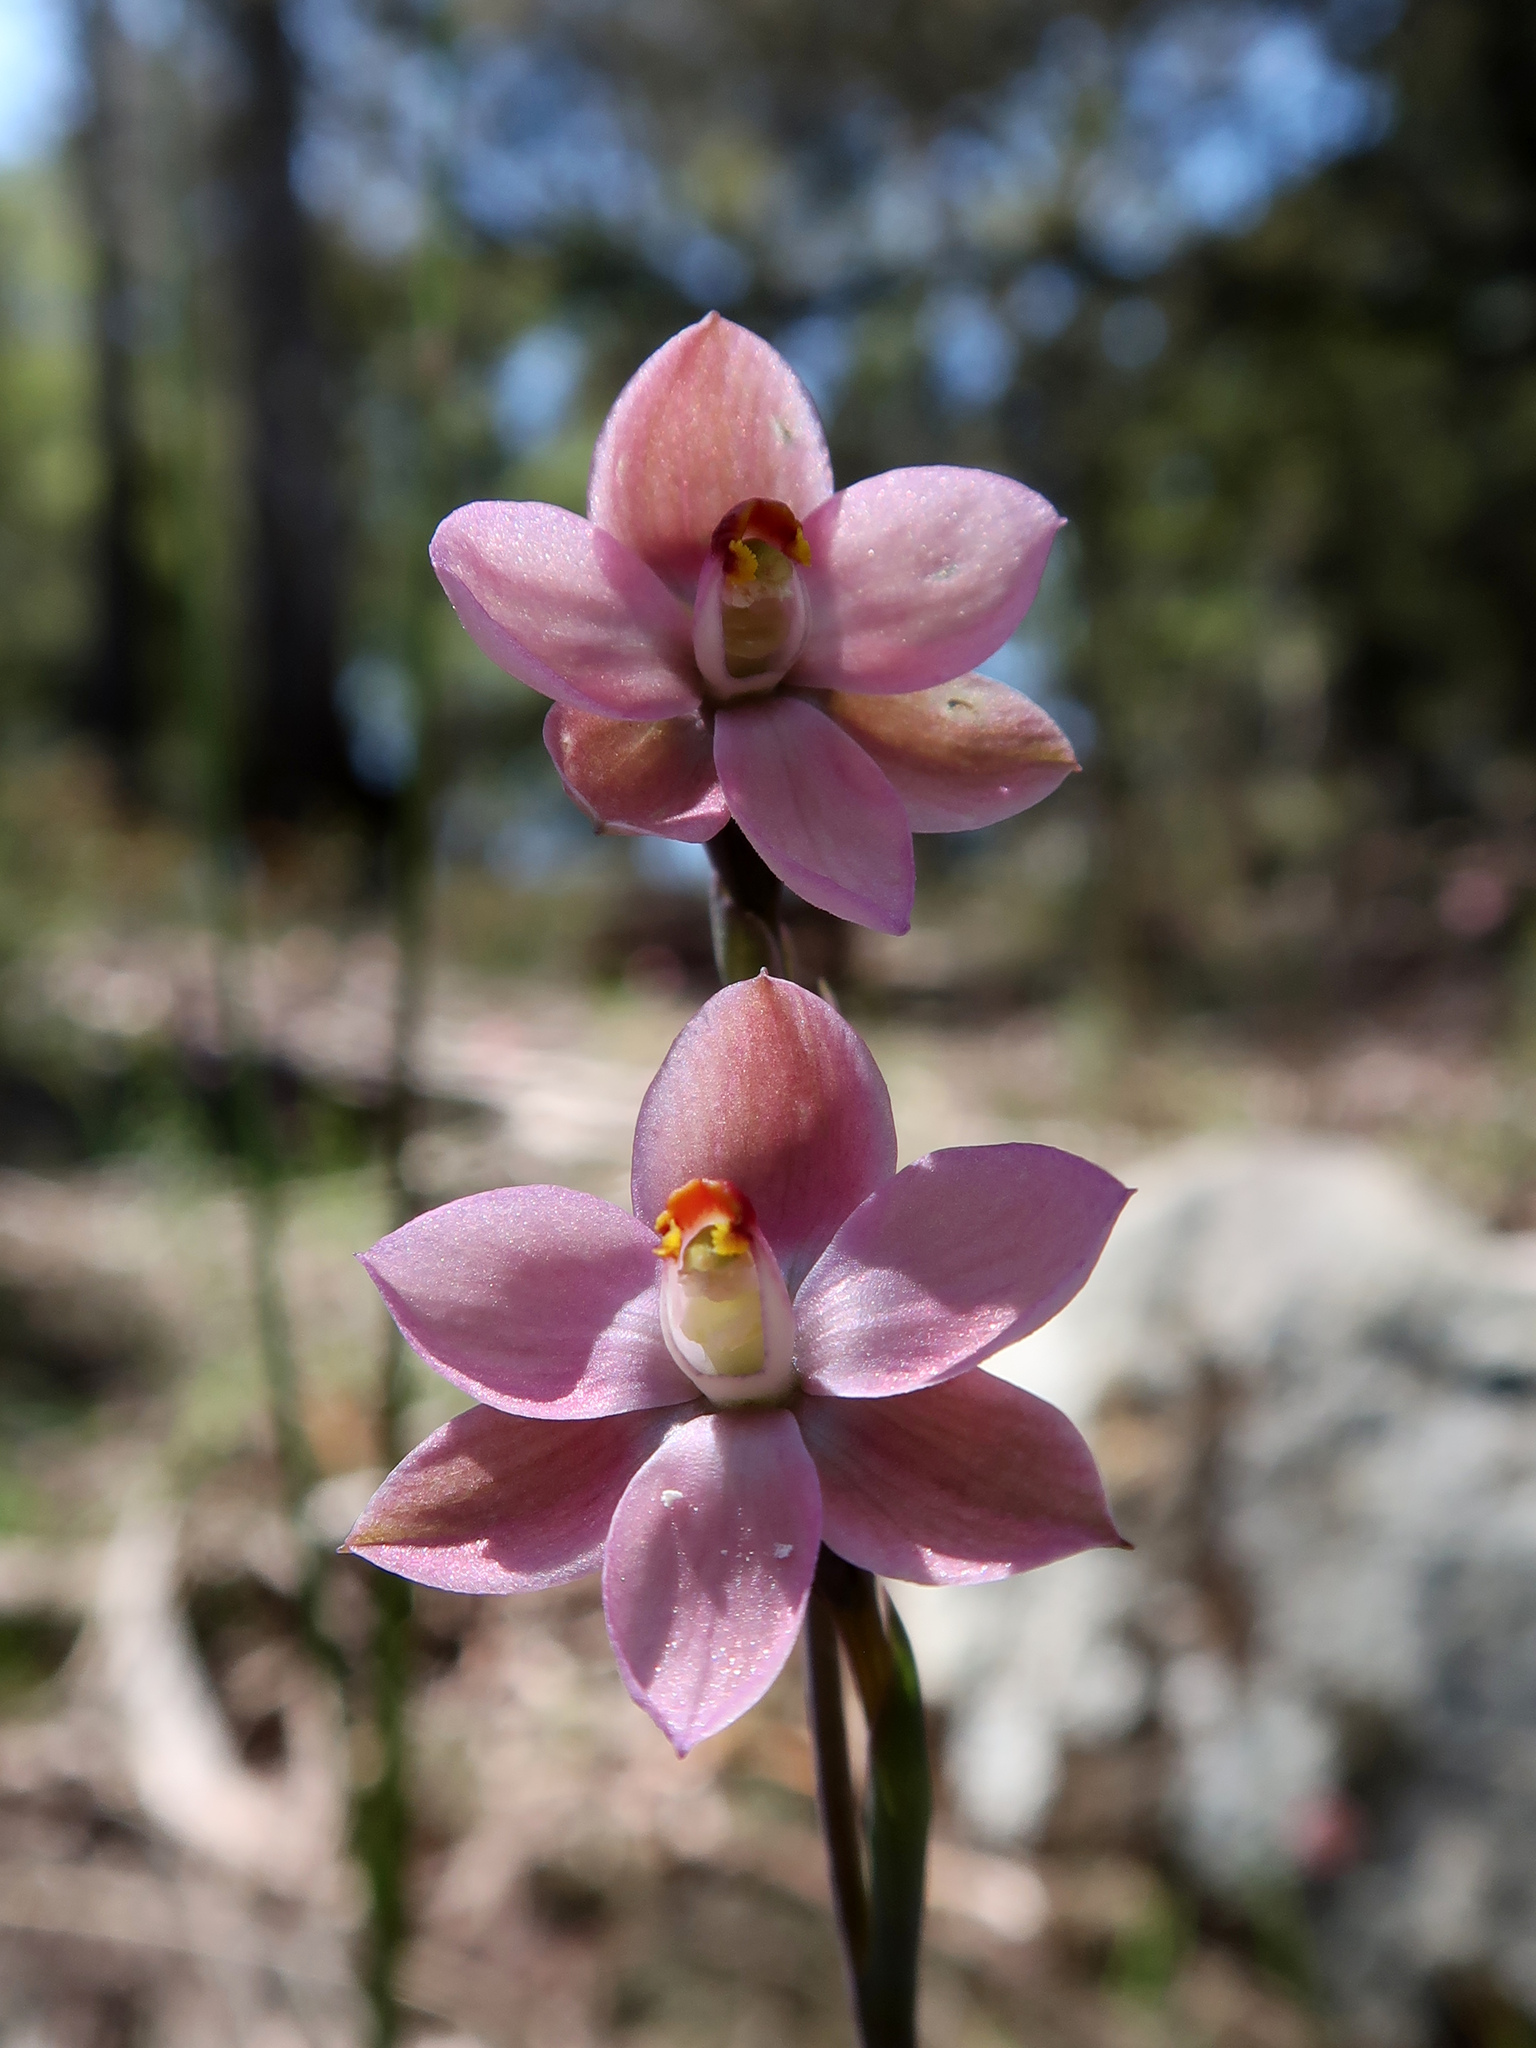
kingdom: Plantae
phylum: Tracheophyta
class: Liliopsida
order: Asparagales
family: Orchidaceae
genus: Thelymitra
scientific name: Thelymitra rubra
